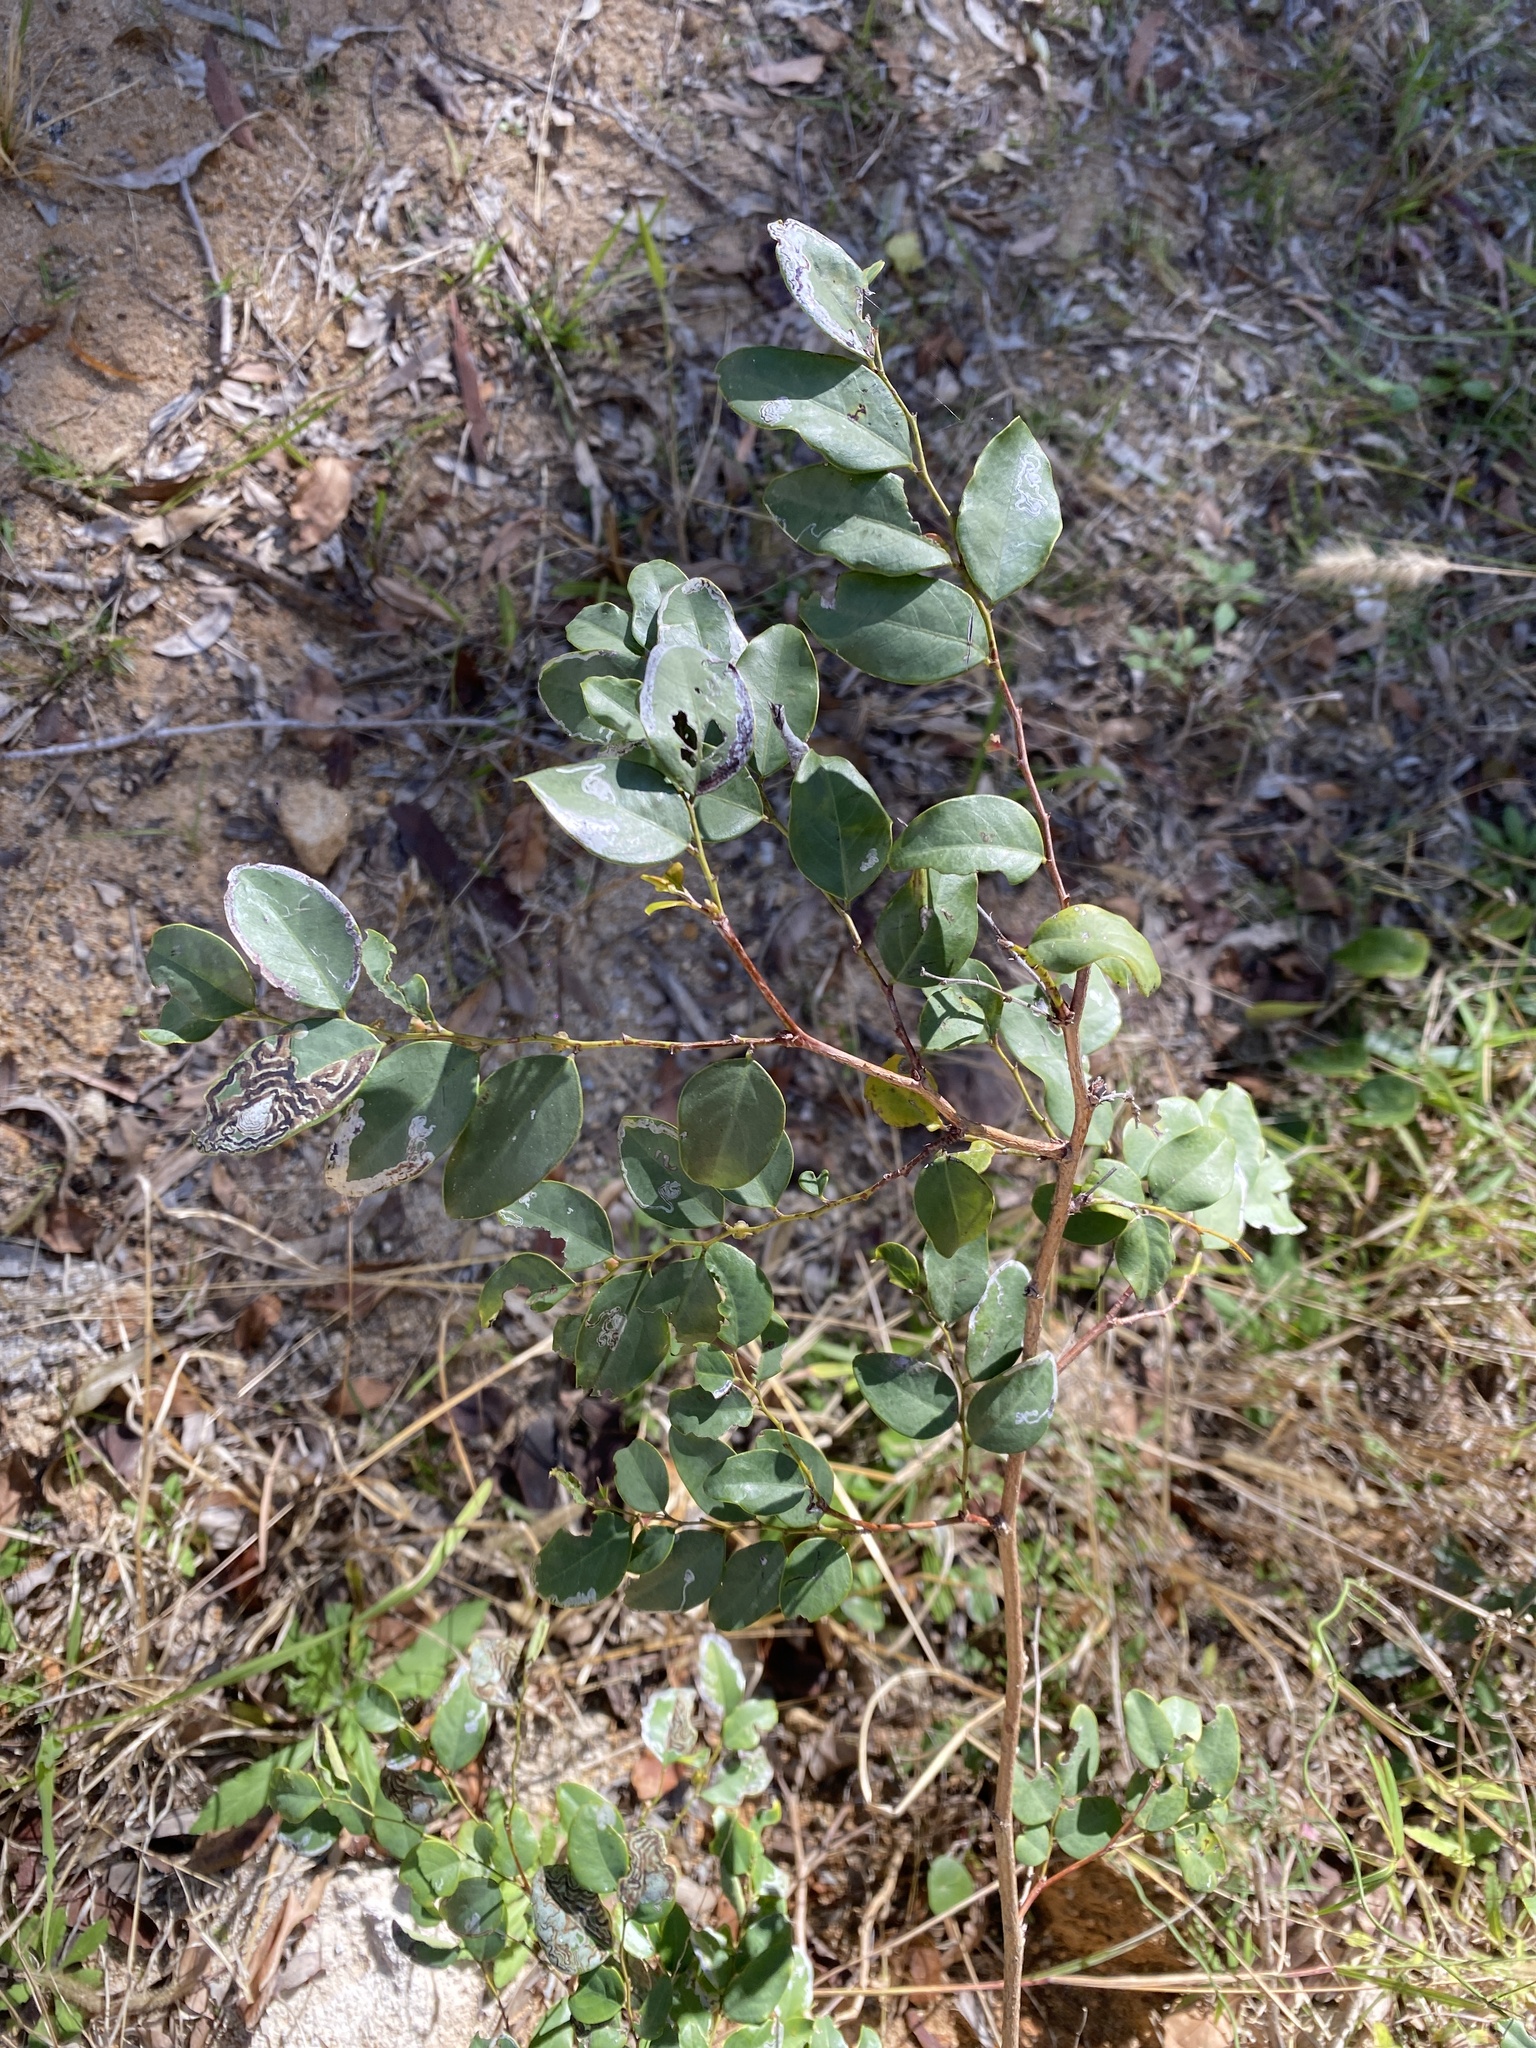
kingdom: Plantae
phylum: Tracheophyta
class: Magnoliopsida
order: Malpighiales
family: Phyllanthaceae
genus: Breynia
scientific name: Breynia oblongifolia
